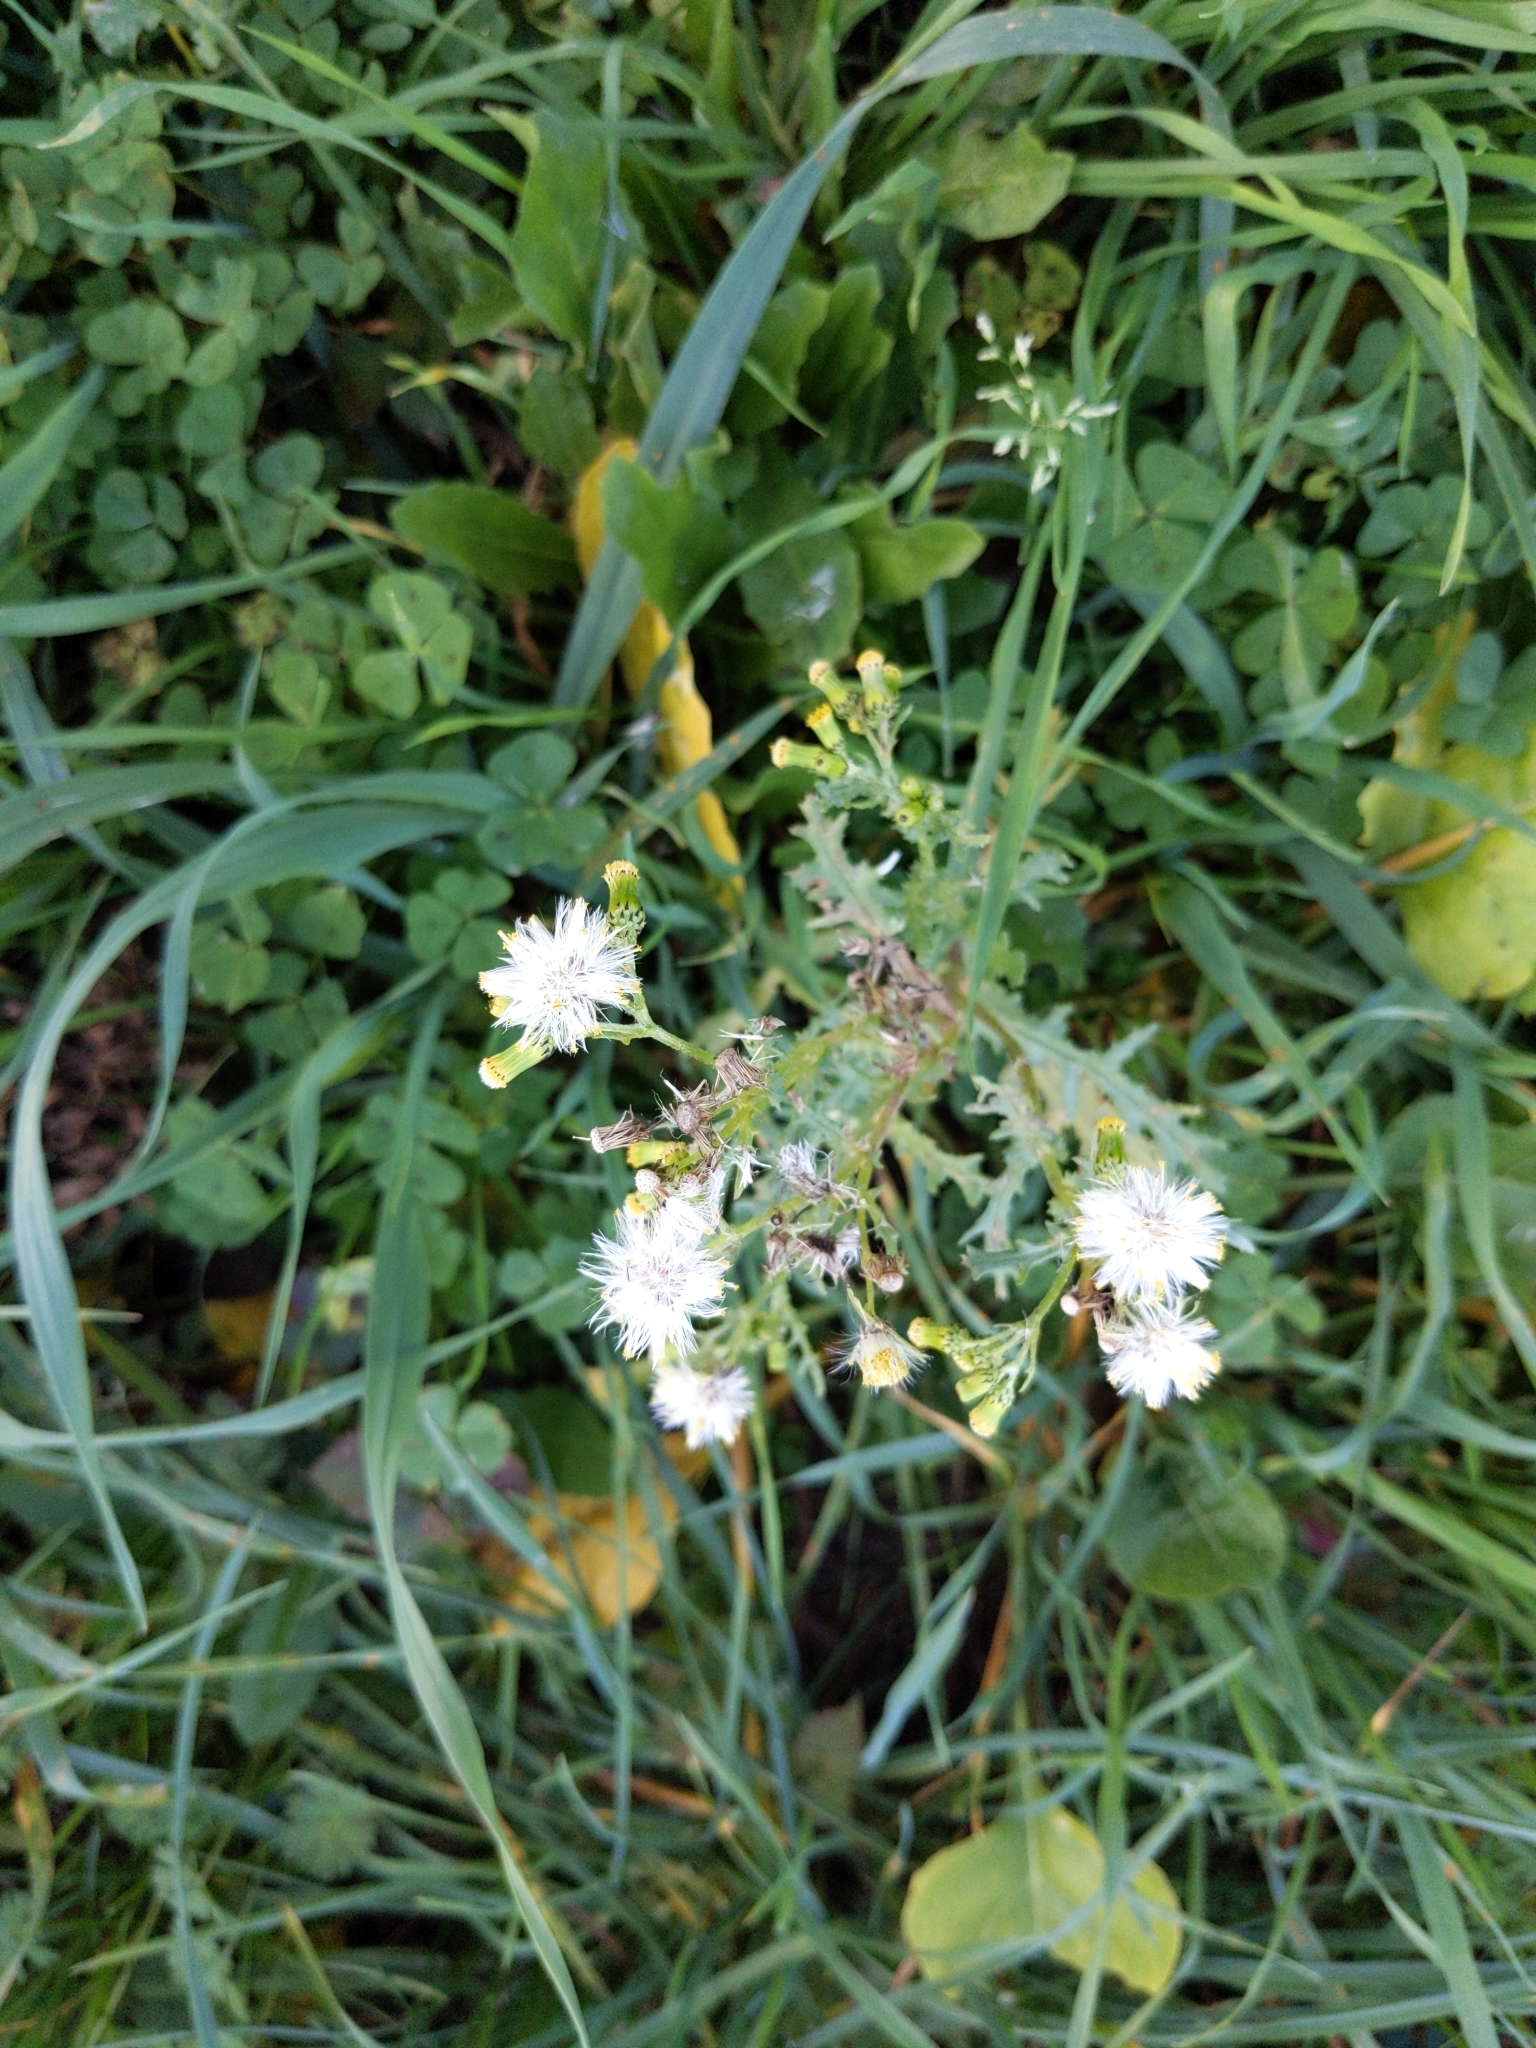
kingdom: Plantae
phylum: Tracheophyta
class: Magnoliopsida
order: Asterales
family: Asteraceae
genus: Senecio
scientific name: Senecio vulgaris
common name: Old-man-in-the-spring
